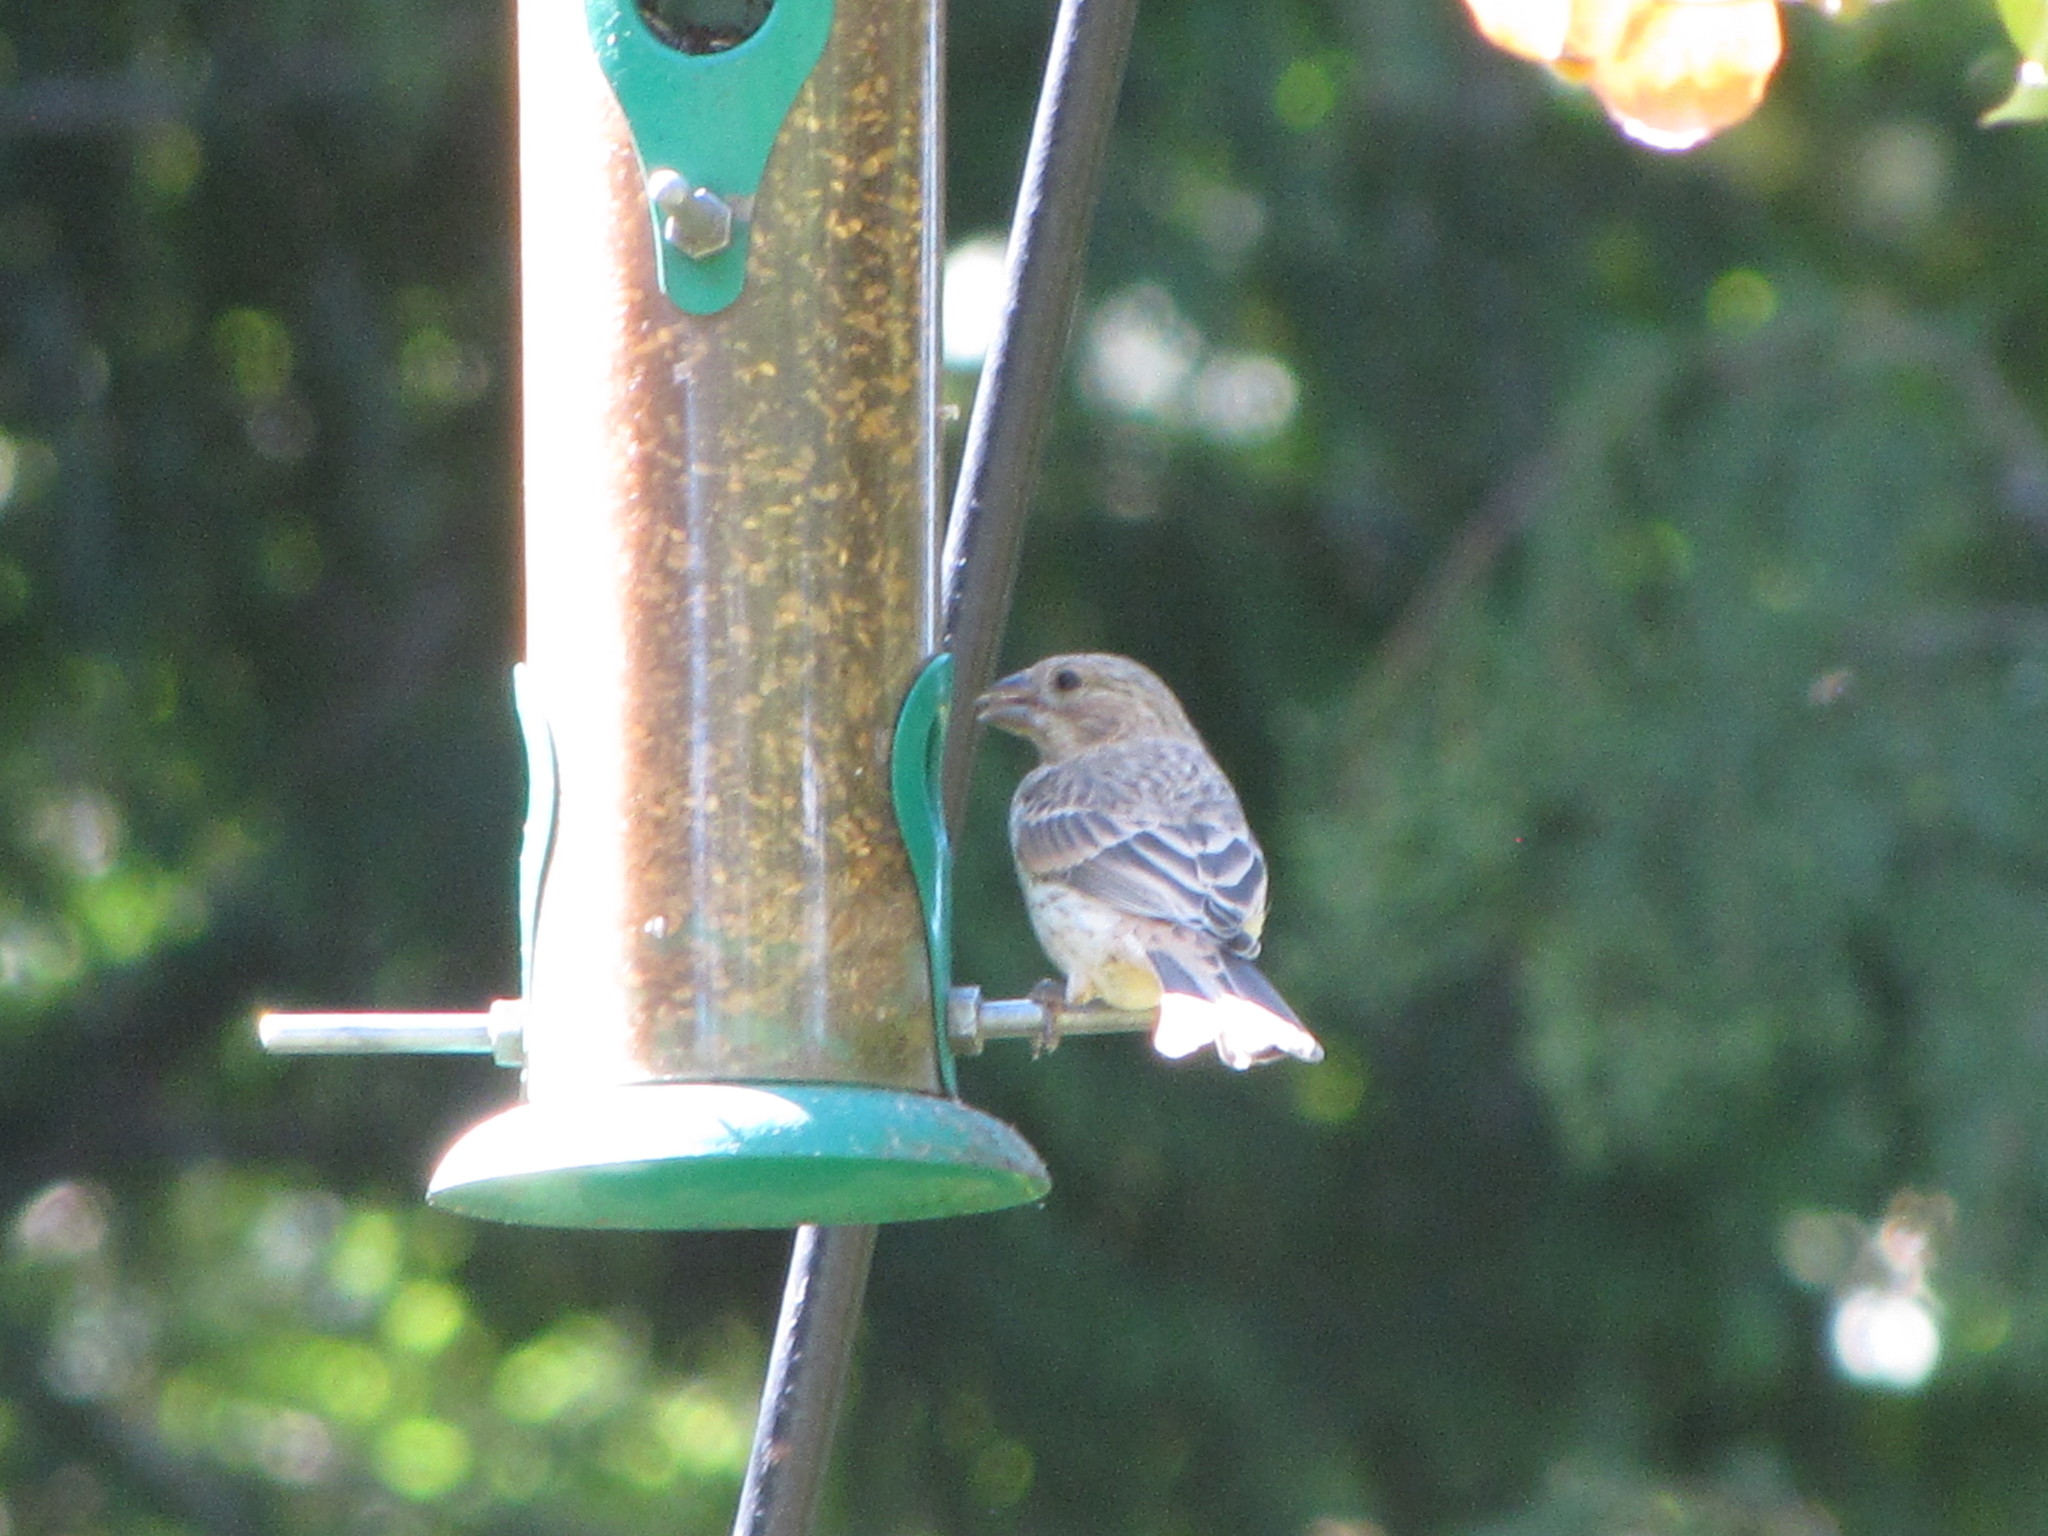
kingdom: Animalia
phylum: Chordata
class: Aves
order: Passeriformes
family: Fringillidae
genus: Haemorhous
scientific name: Haemorhous mexicanus
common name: House finch
